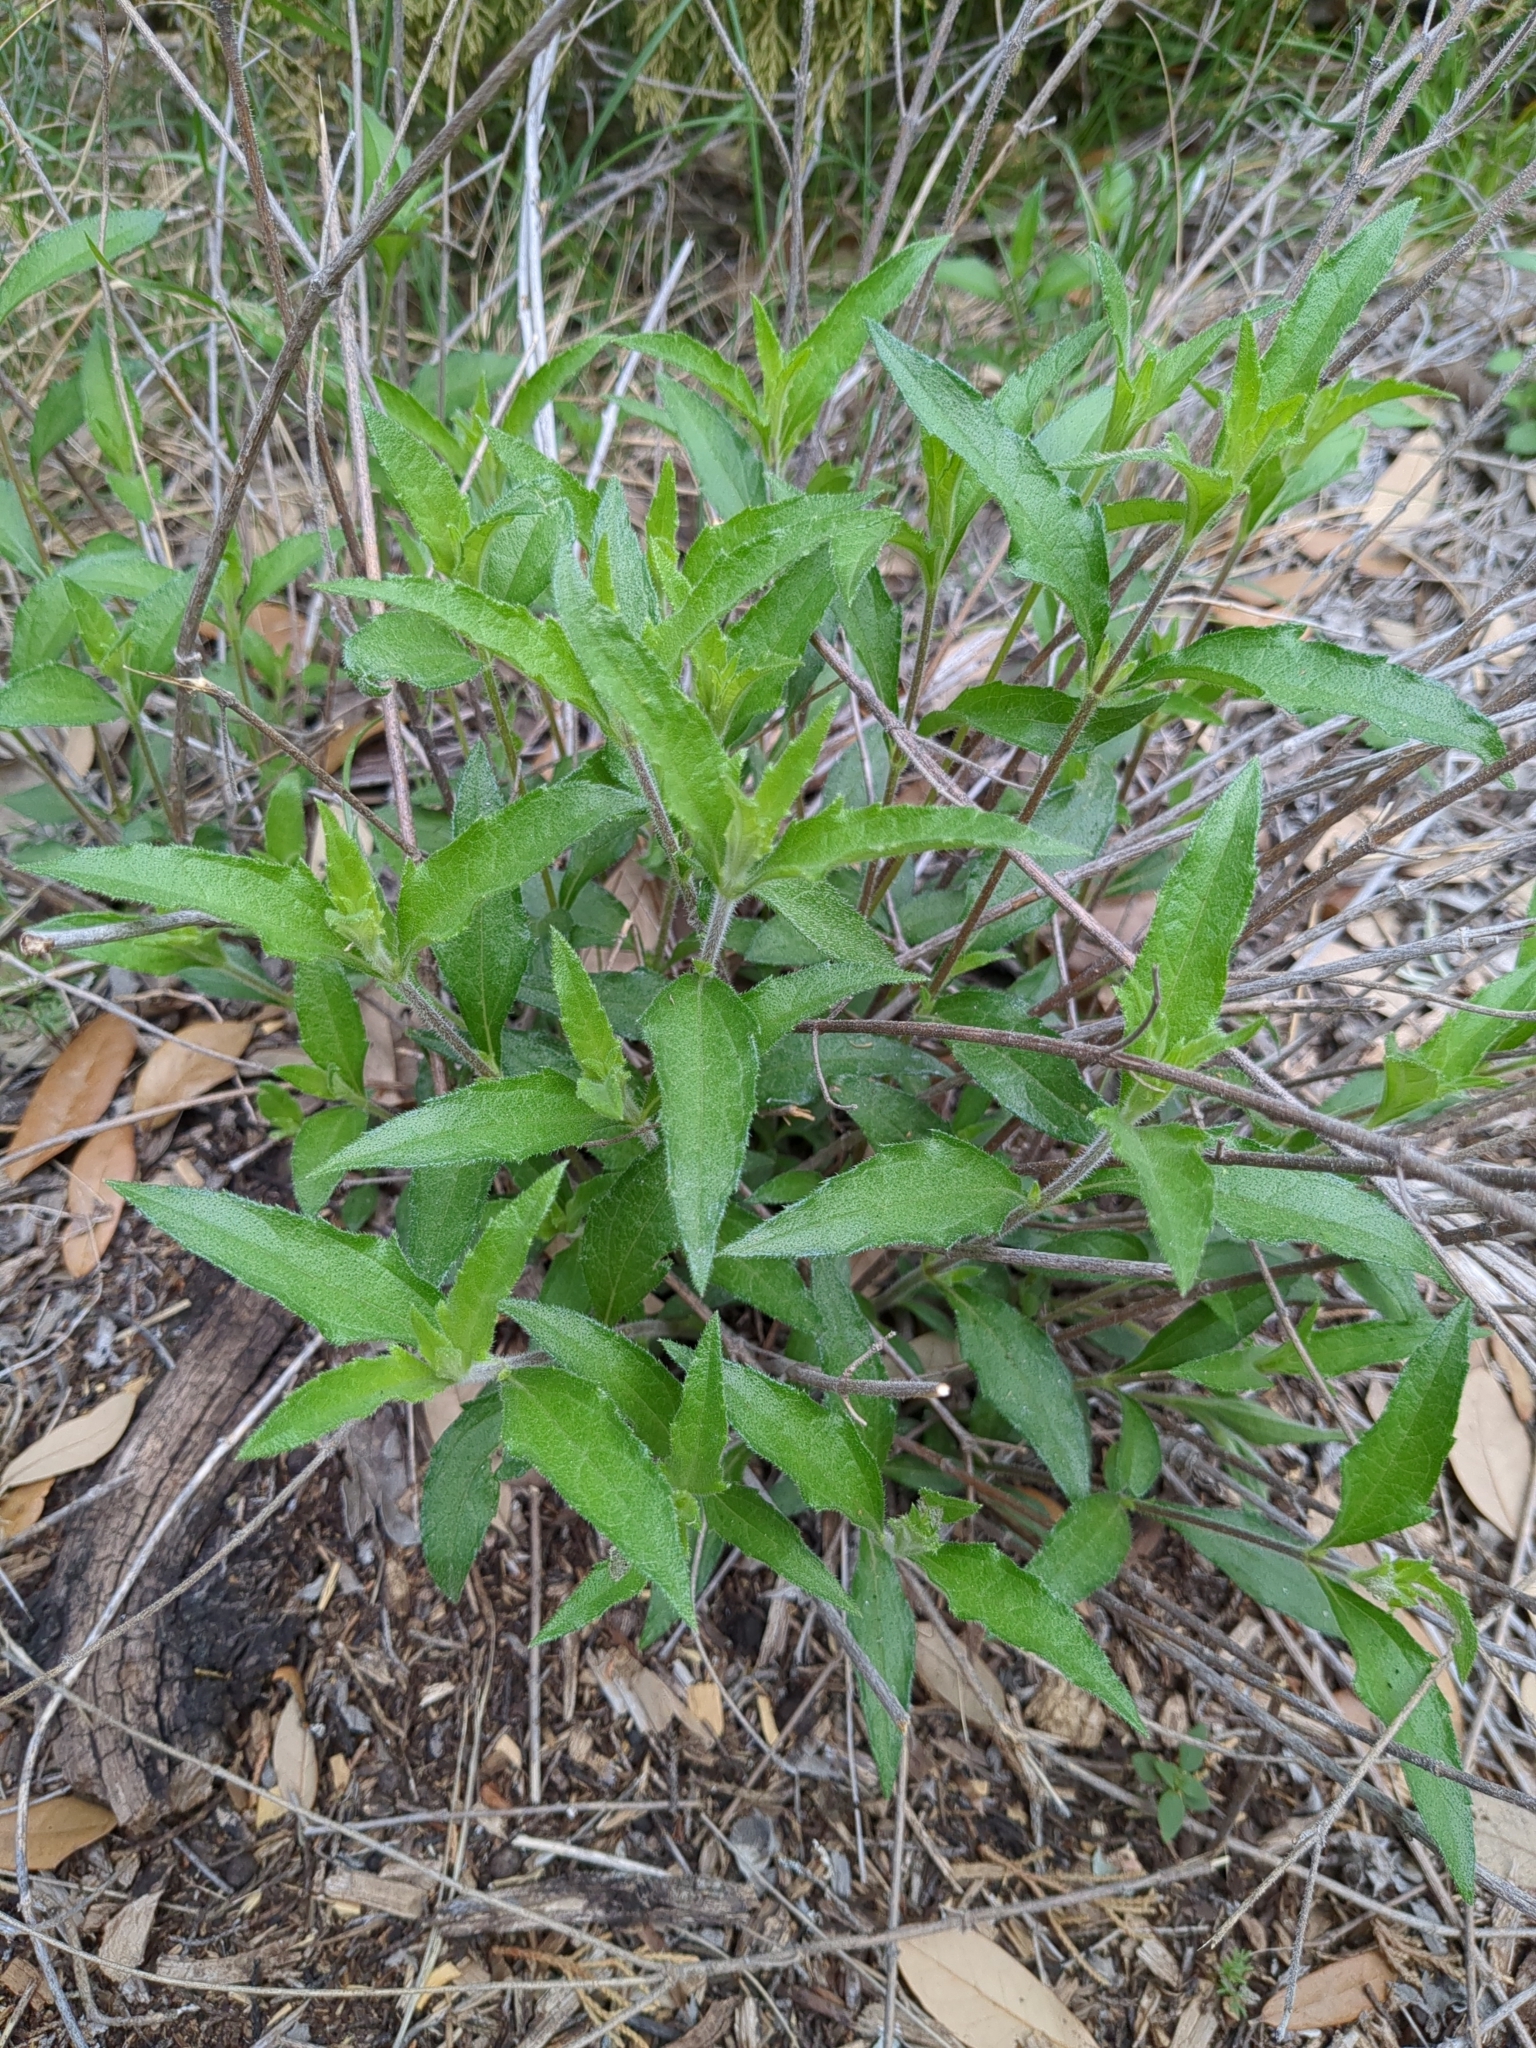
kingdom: Plantae
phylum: Tracheophyta
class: Magnoliopsida
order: Asterales
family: Asteraceae
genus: Wedelia
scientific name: Wedelia acapulcensis
